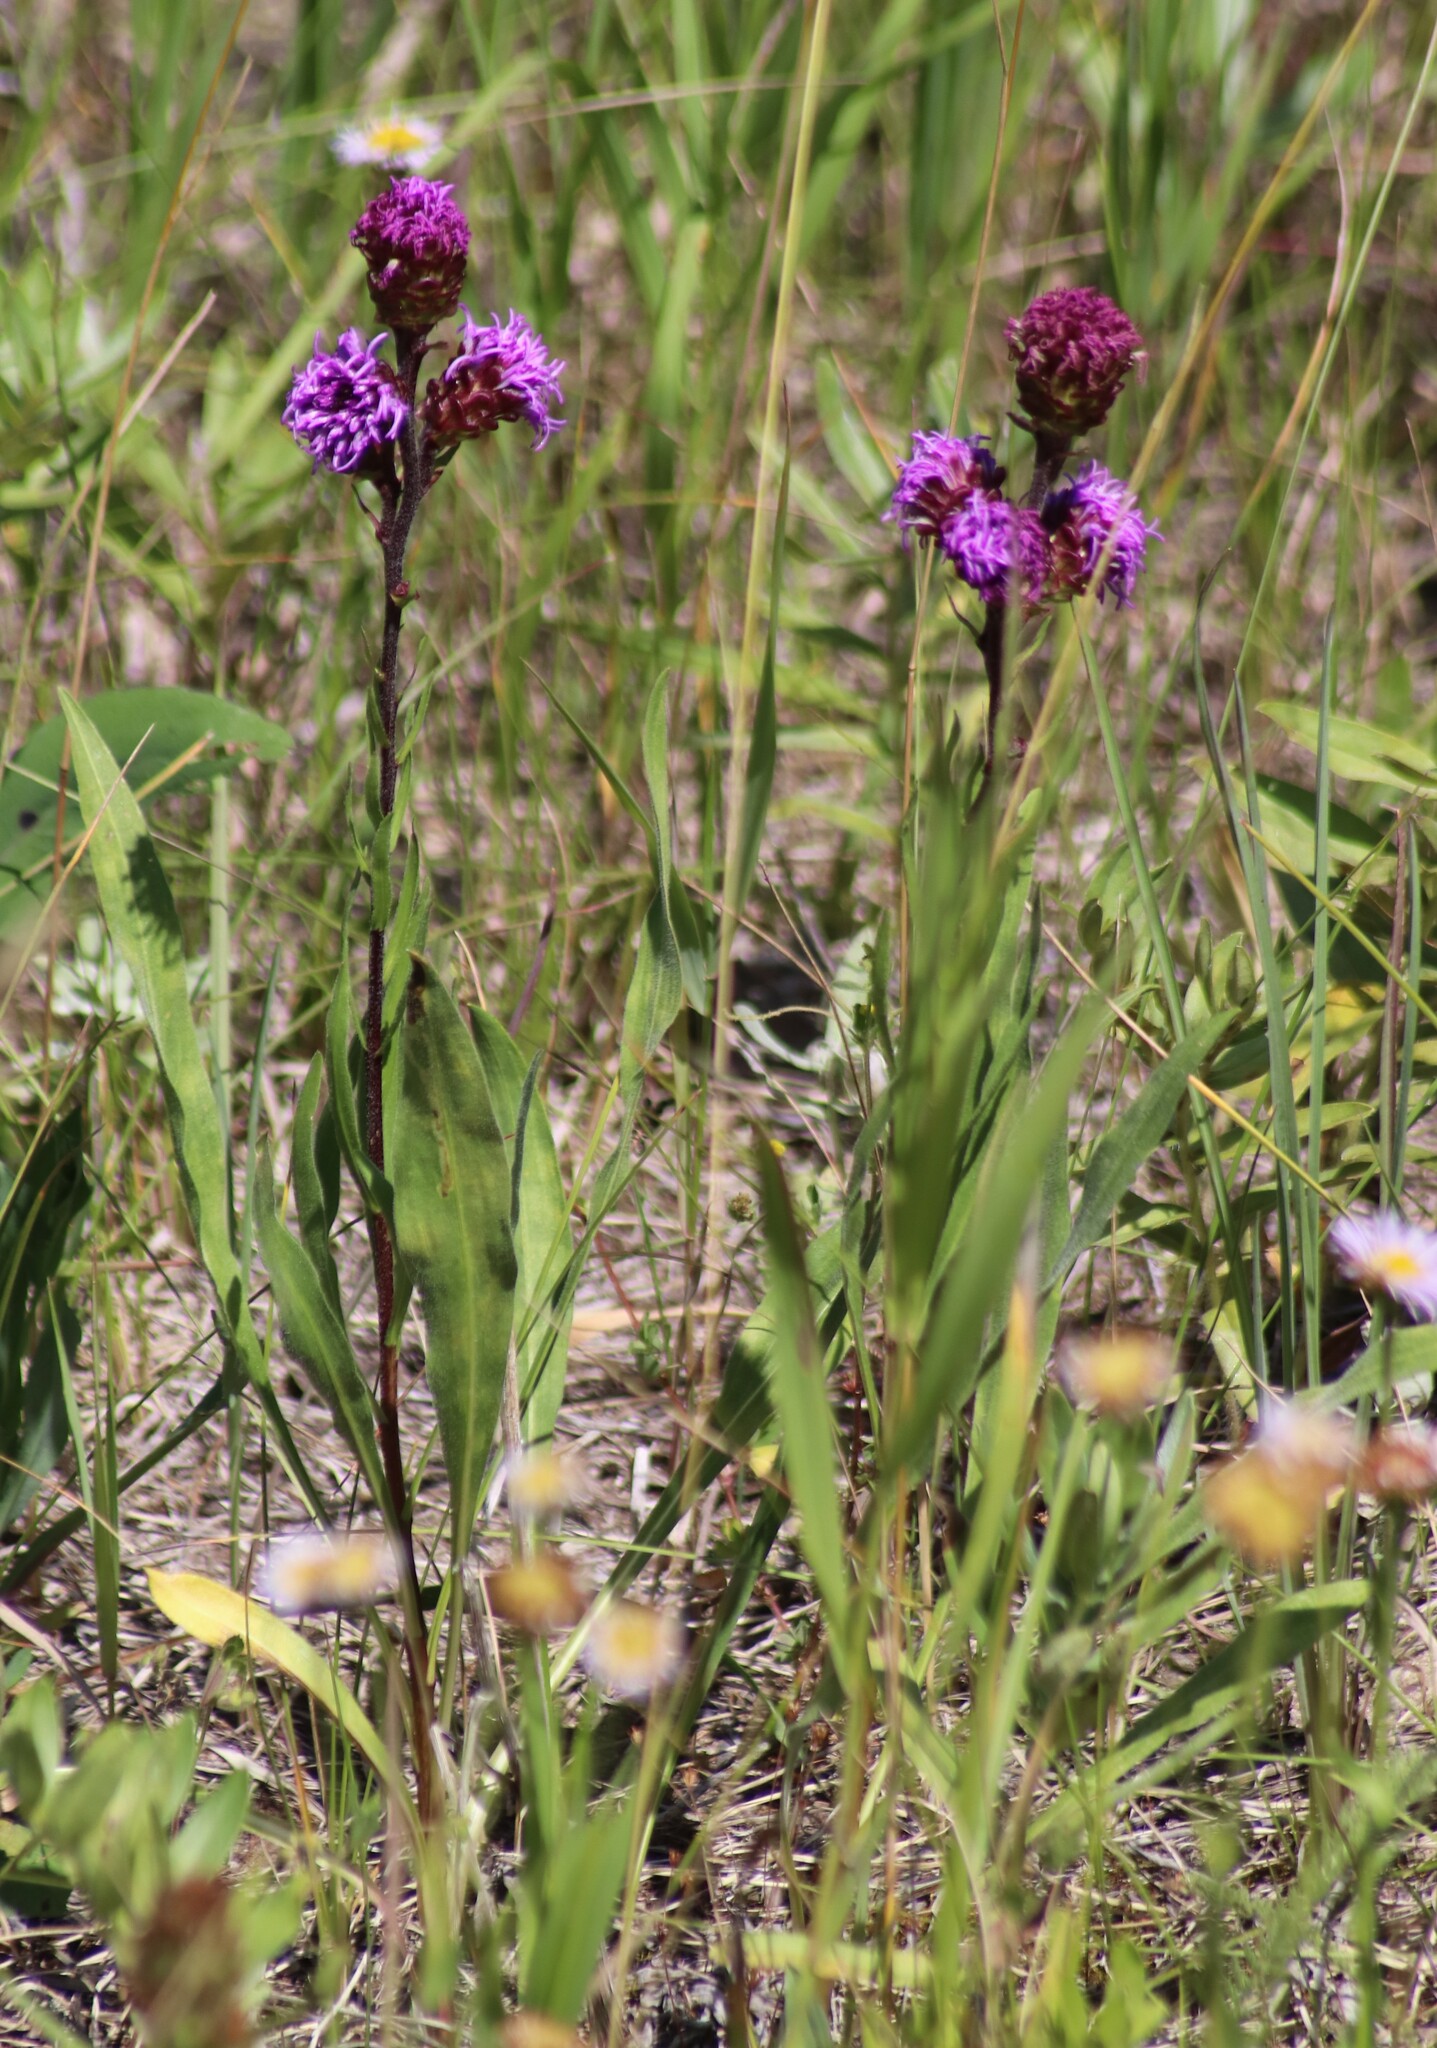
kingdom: Plantae
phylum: Tracheophyta
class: Magnoliopsida
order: Asterales
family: Asteraceae
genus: Liatris
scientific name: Liatris ligulistylis
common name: Northern plains gayfeather
